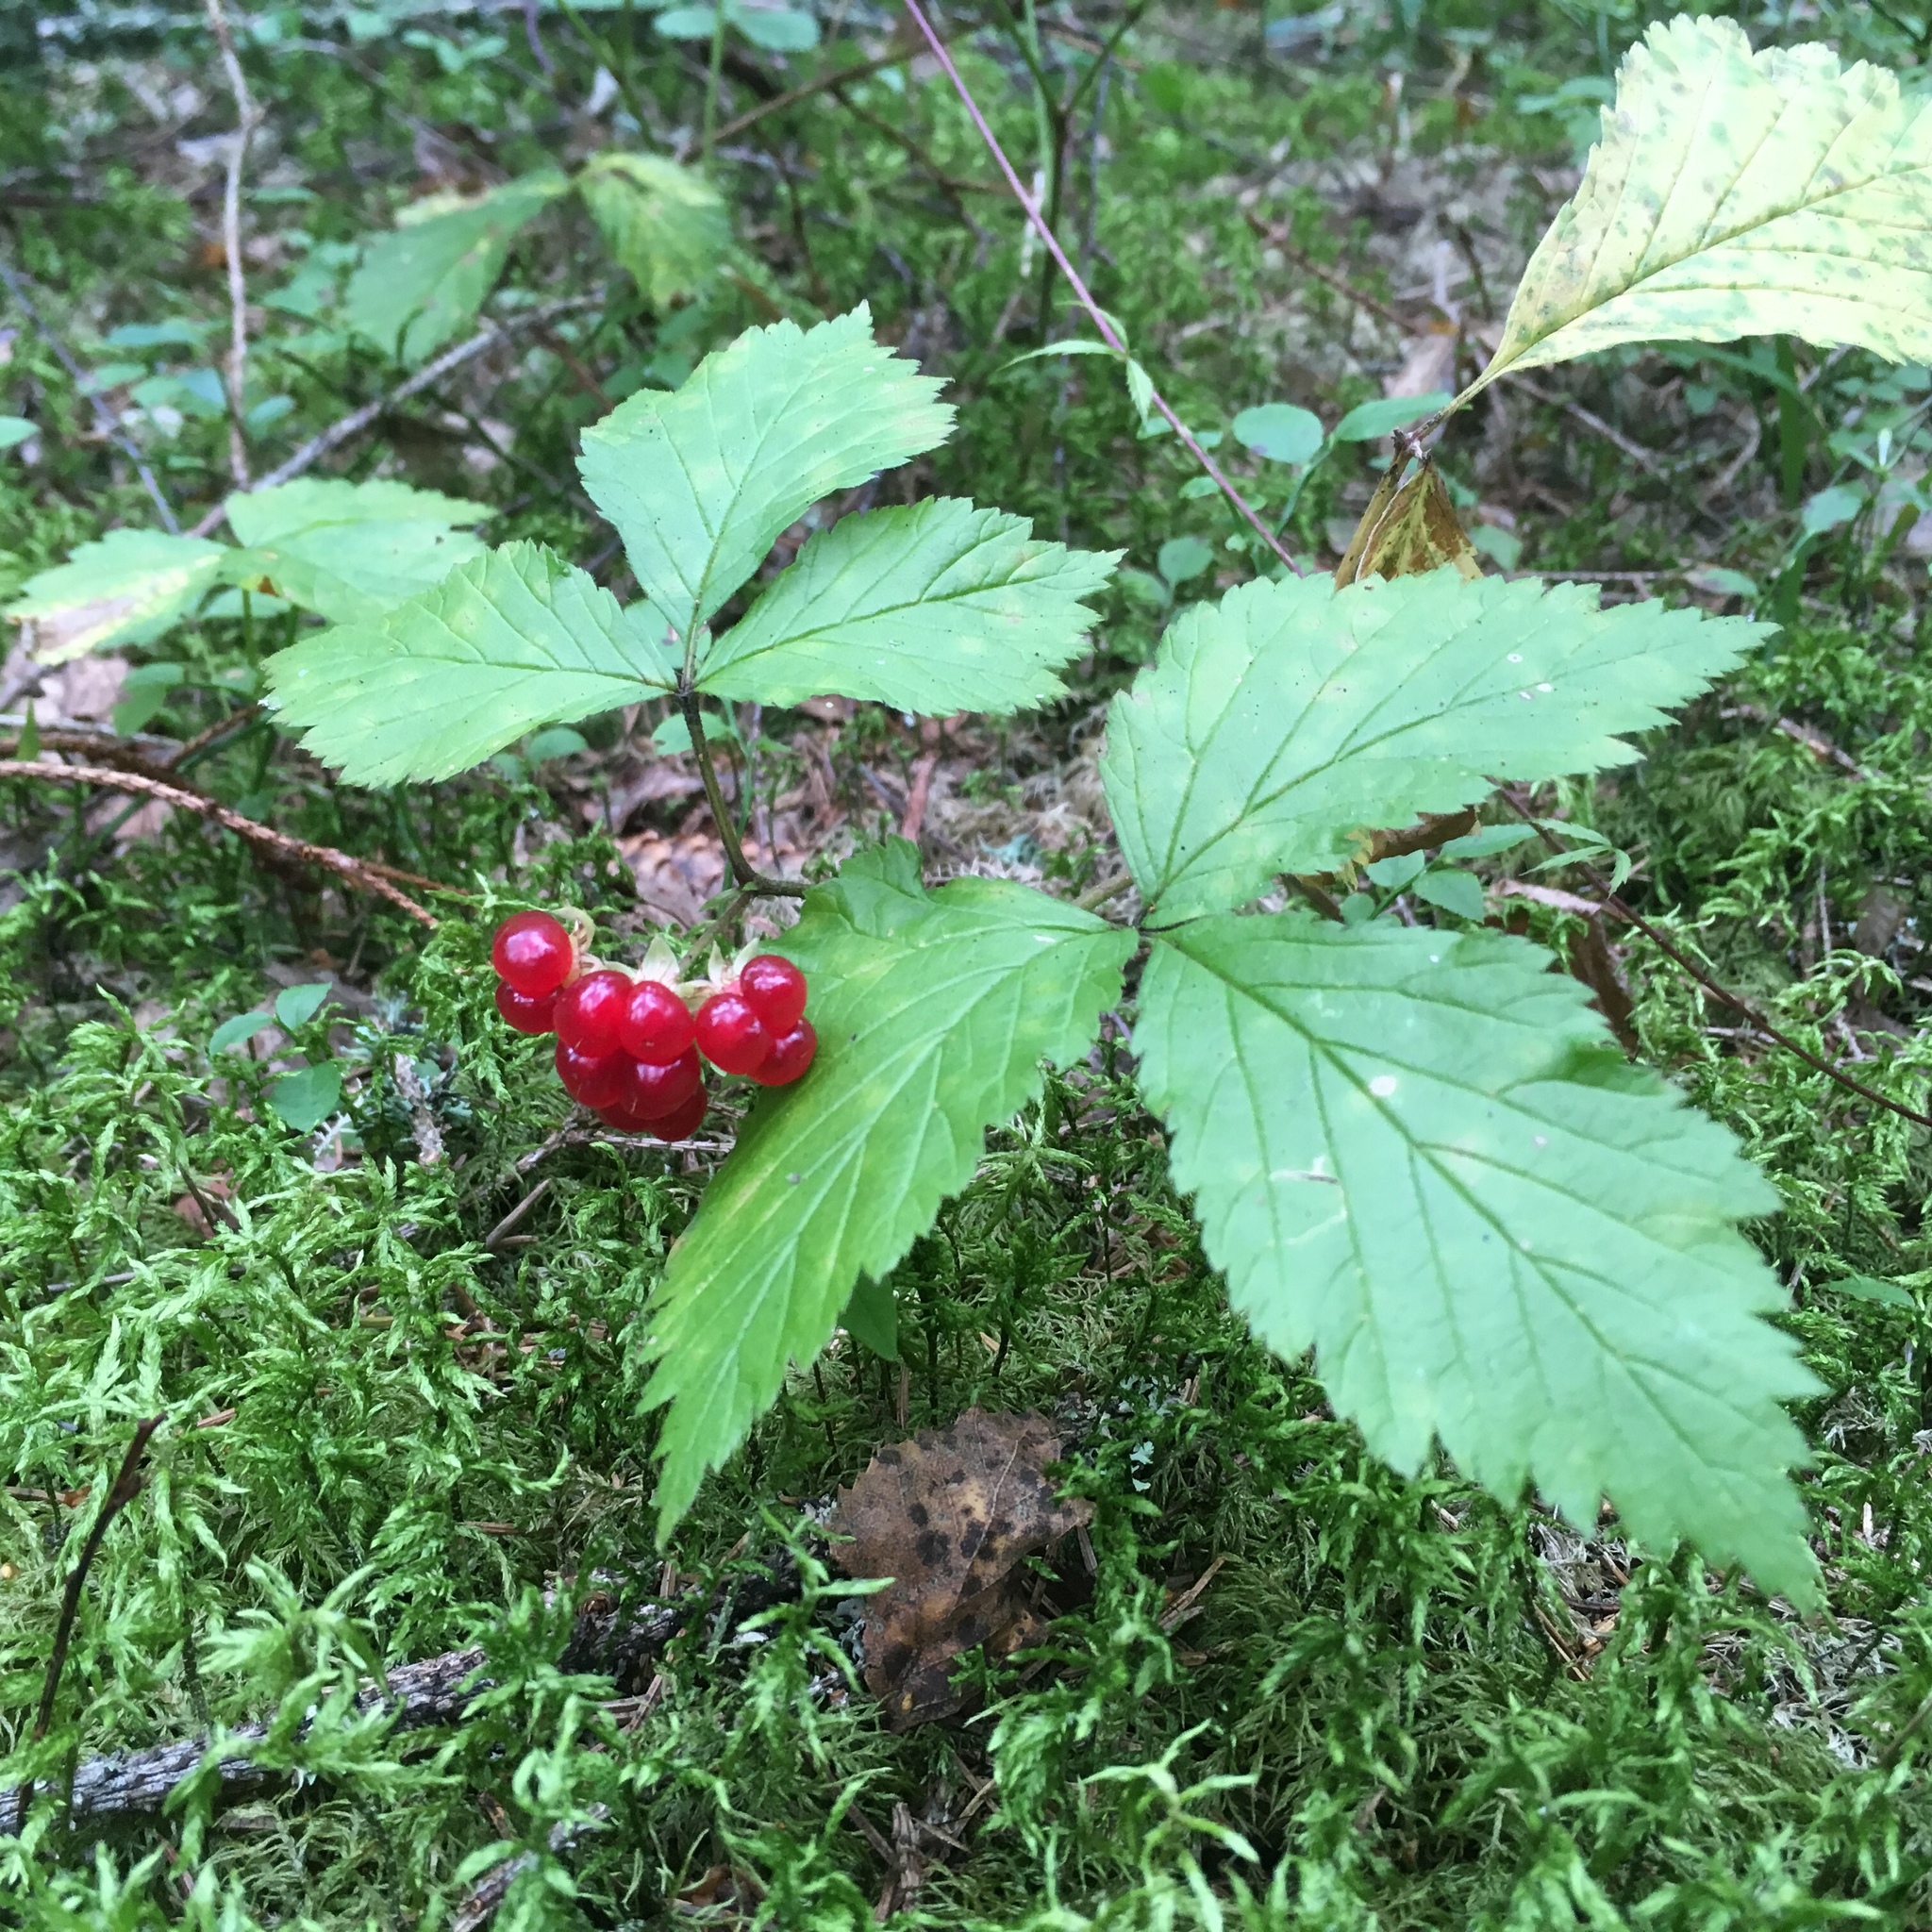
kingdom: Plantae
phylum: Tracheophyta
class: Magnoliopsida
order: Rosales
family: Rosaceae
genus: Rubus
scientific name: Rubus saxatilis
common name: Stone bramble
